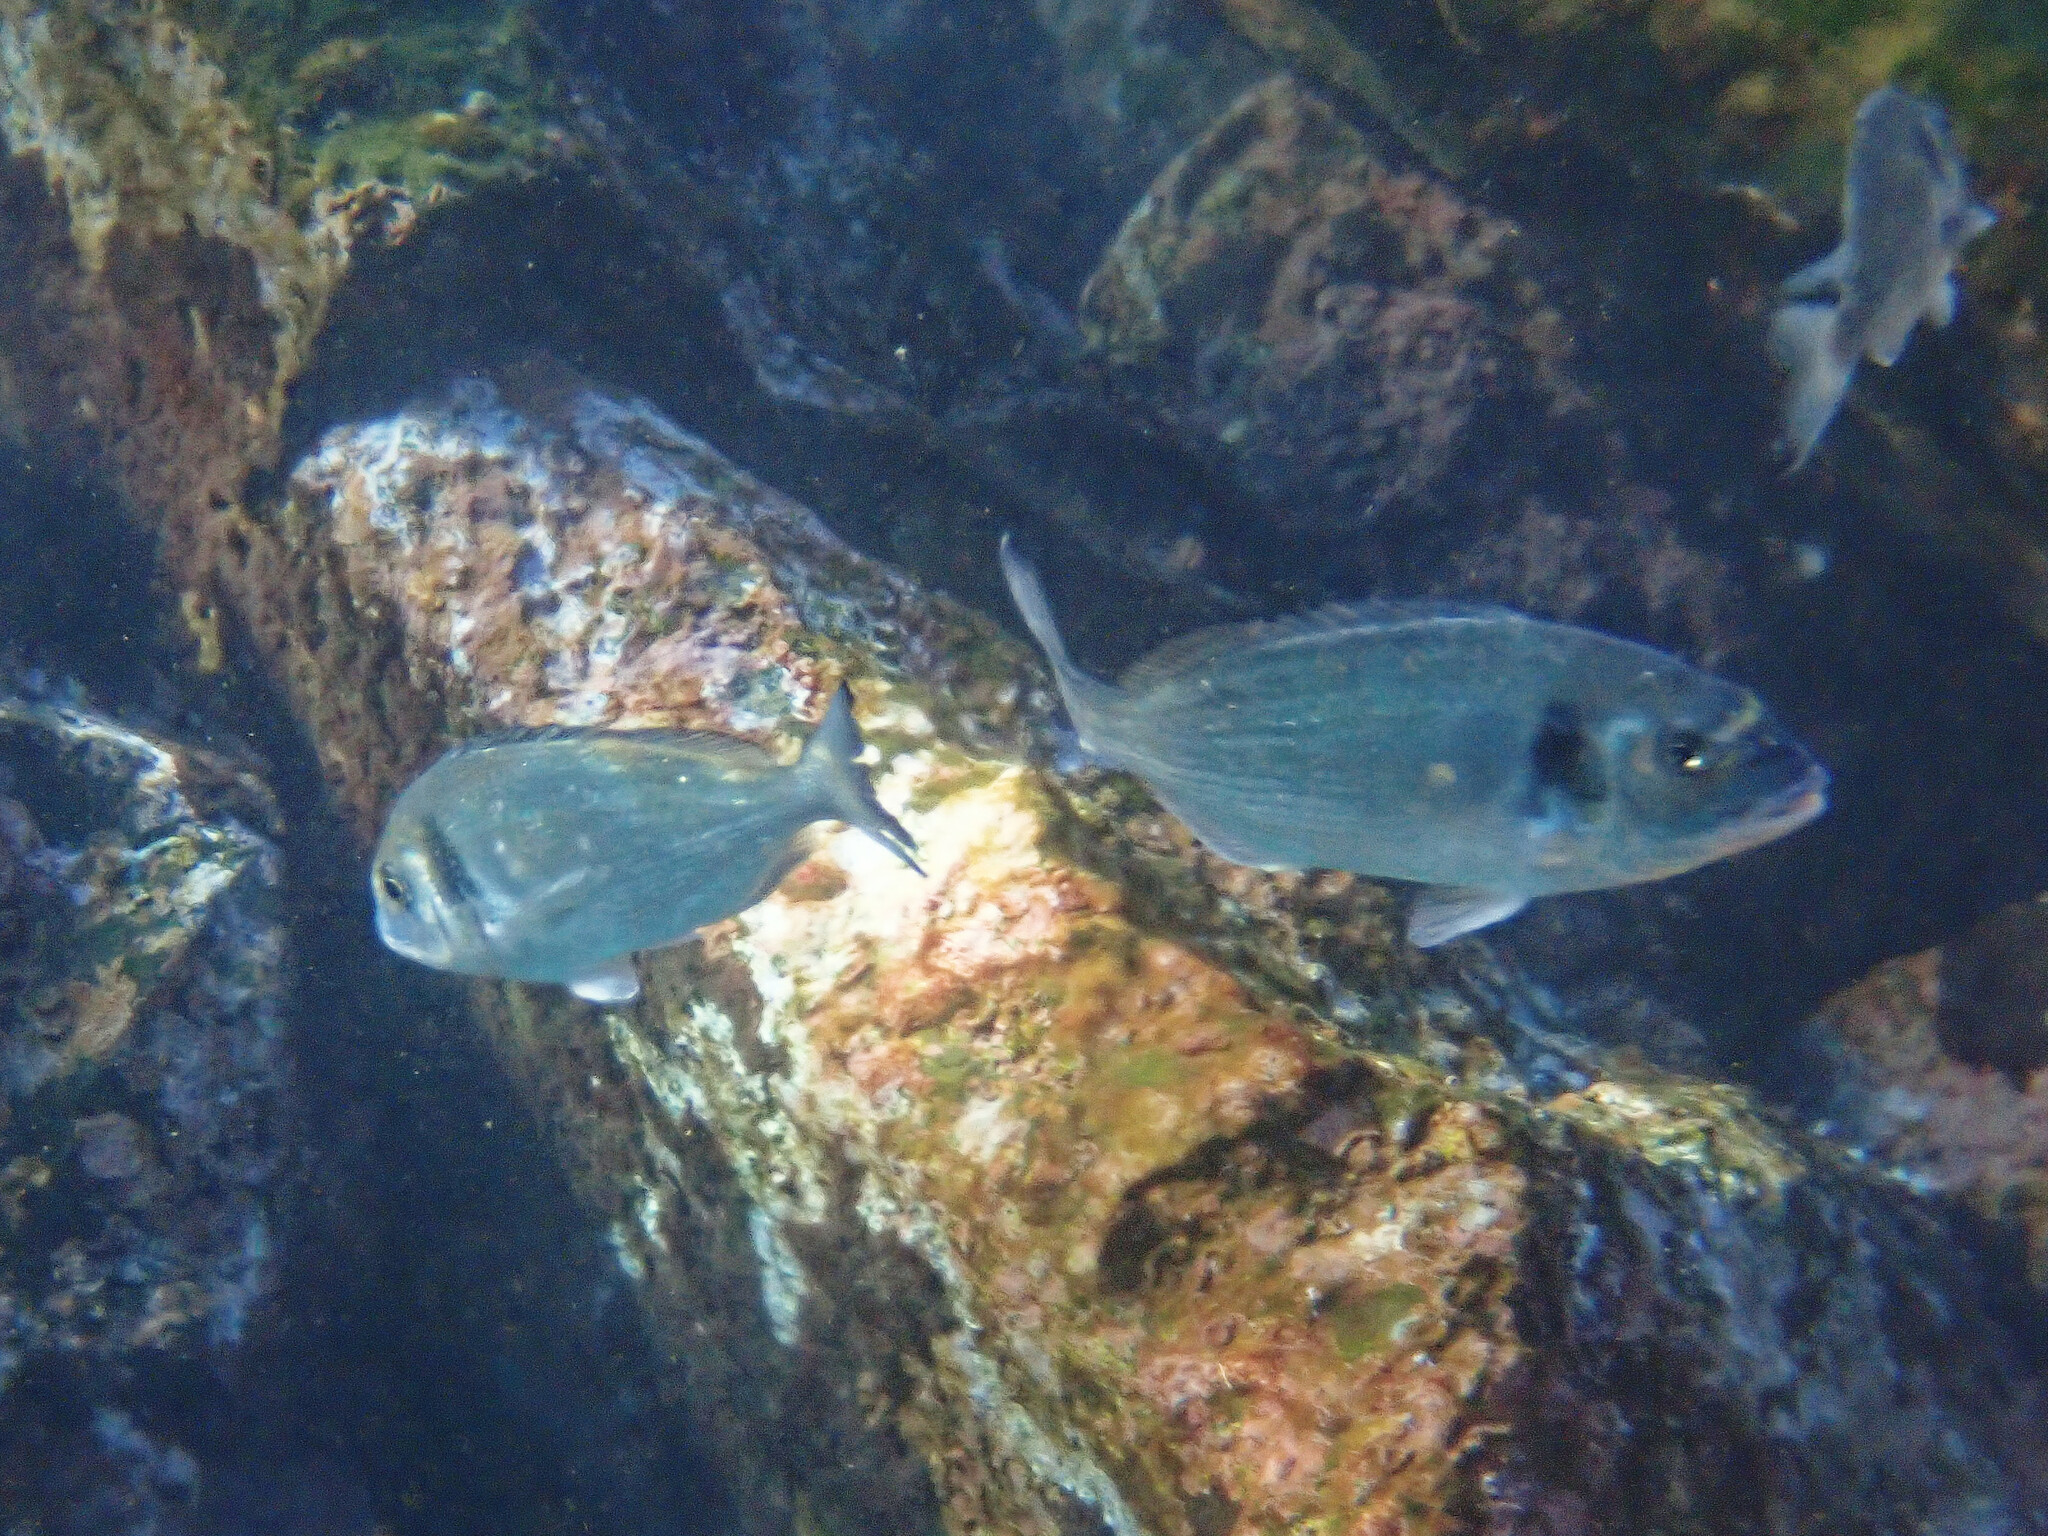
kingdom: Animalia
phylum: Chordata
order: Perciformes
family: Sparidae
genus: Sparus
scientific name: Sparus aurata
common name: Gilthead
